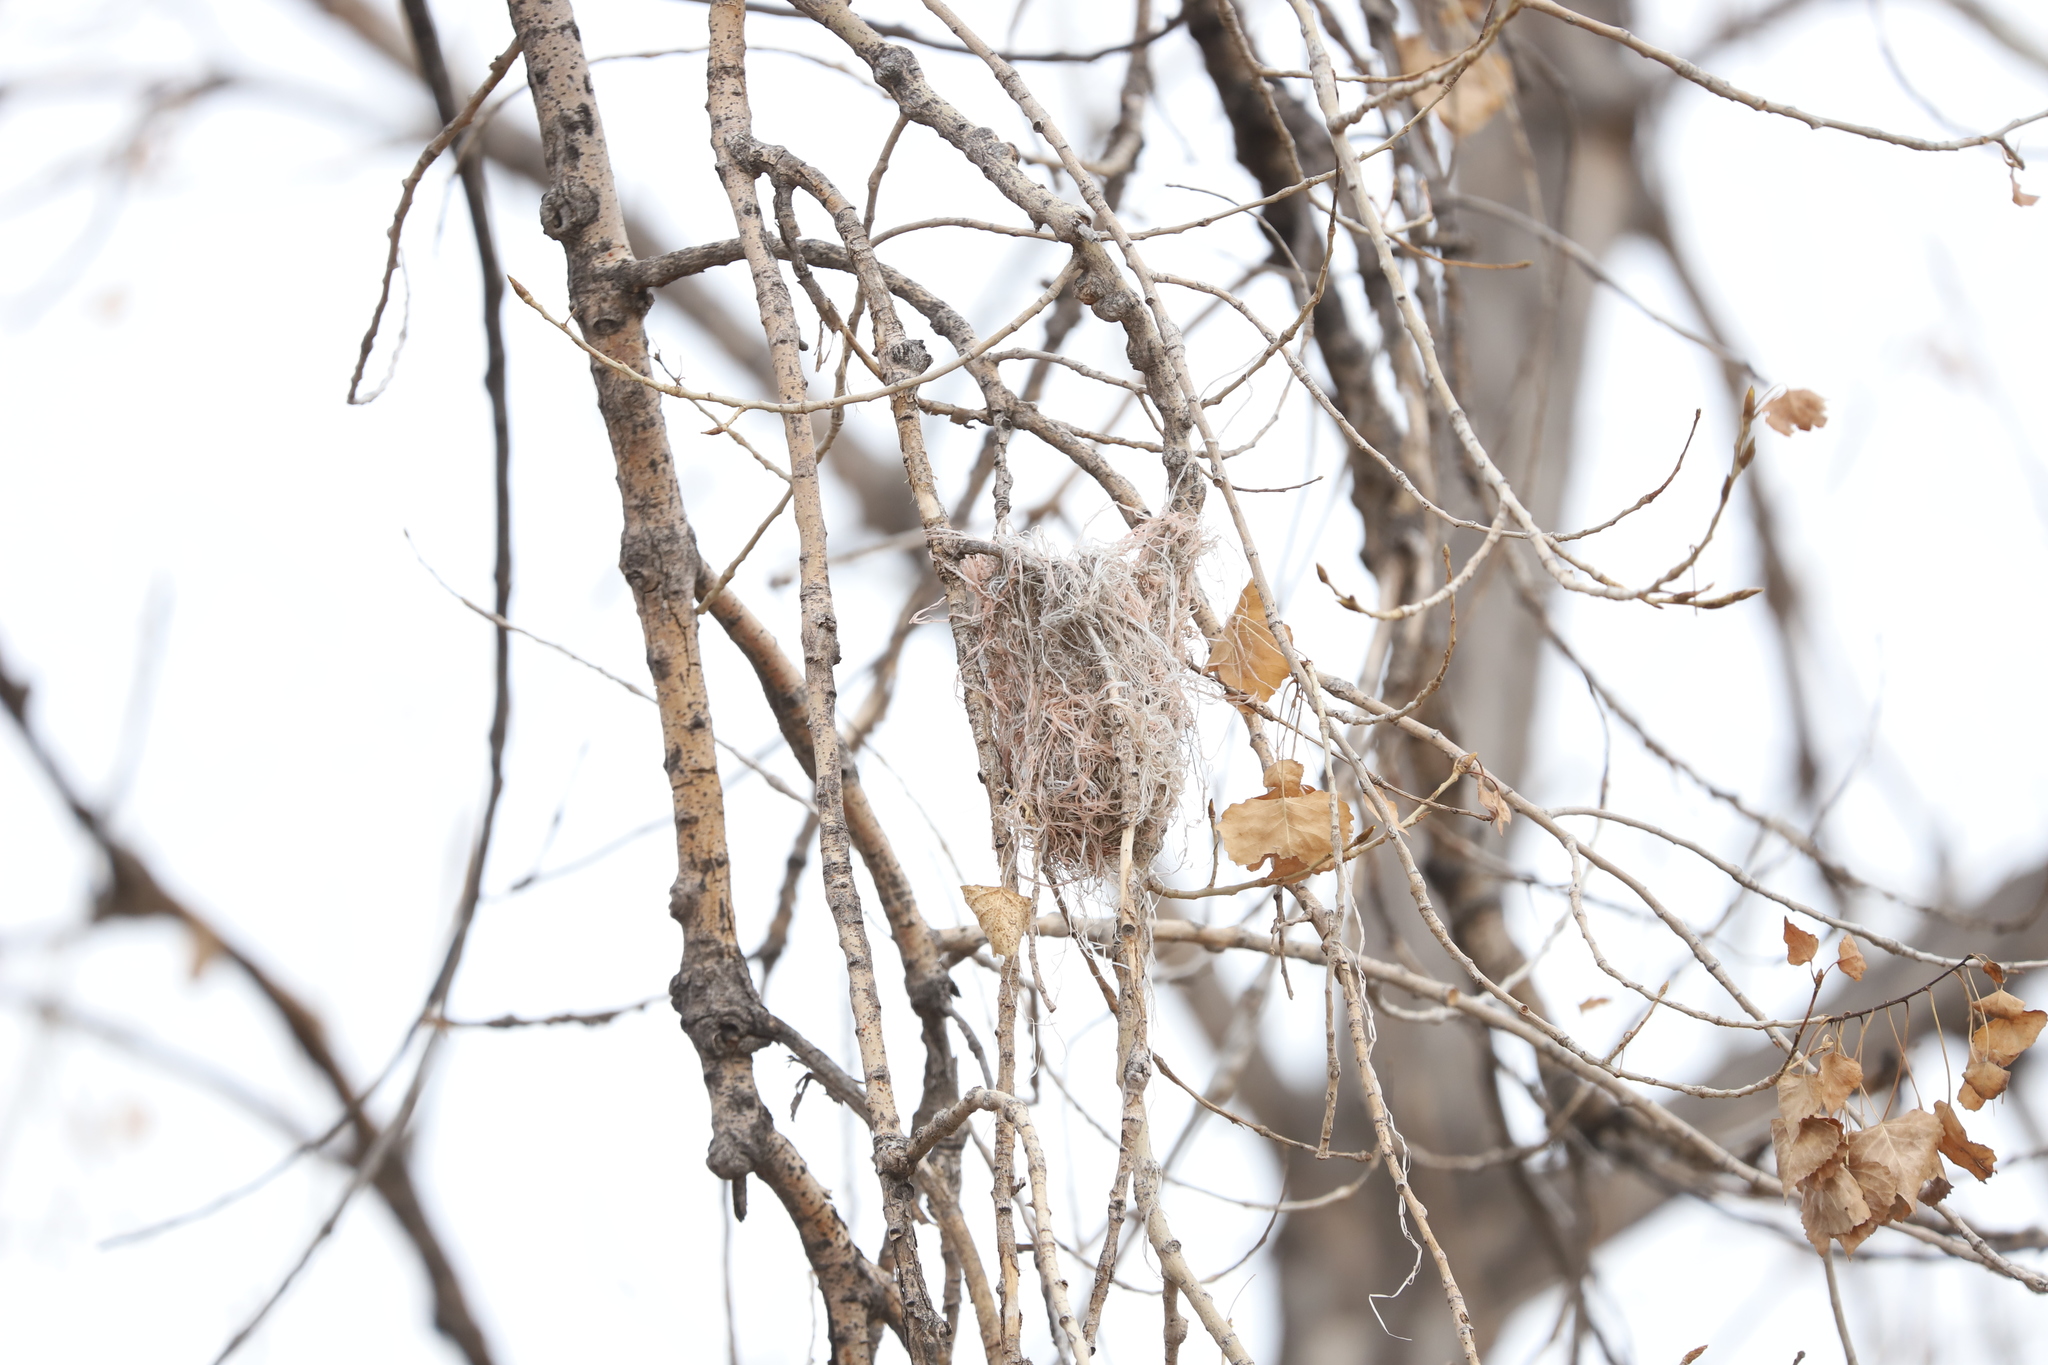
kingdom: Animalia
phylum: Chordata
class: Aves
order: Passeriformes
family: Icteridae
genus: Icterus
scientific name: Icterus bullockii
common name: Bullock's oriole
